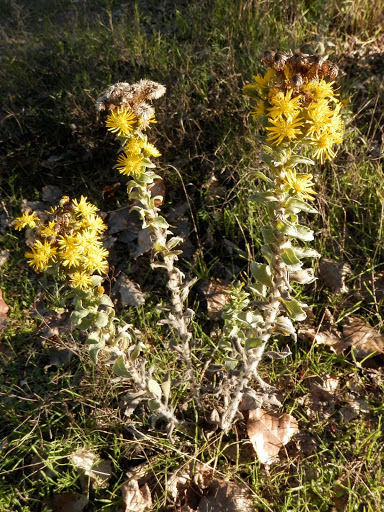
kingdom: Plantae
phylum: Tracheophyta
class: Magnoliopsida
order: Asterales
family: Asteraceae
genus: Heterotheca
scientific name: Heterotheca grandiflora
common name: Telegraphweed
